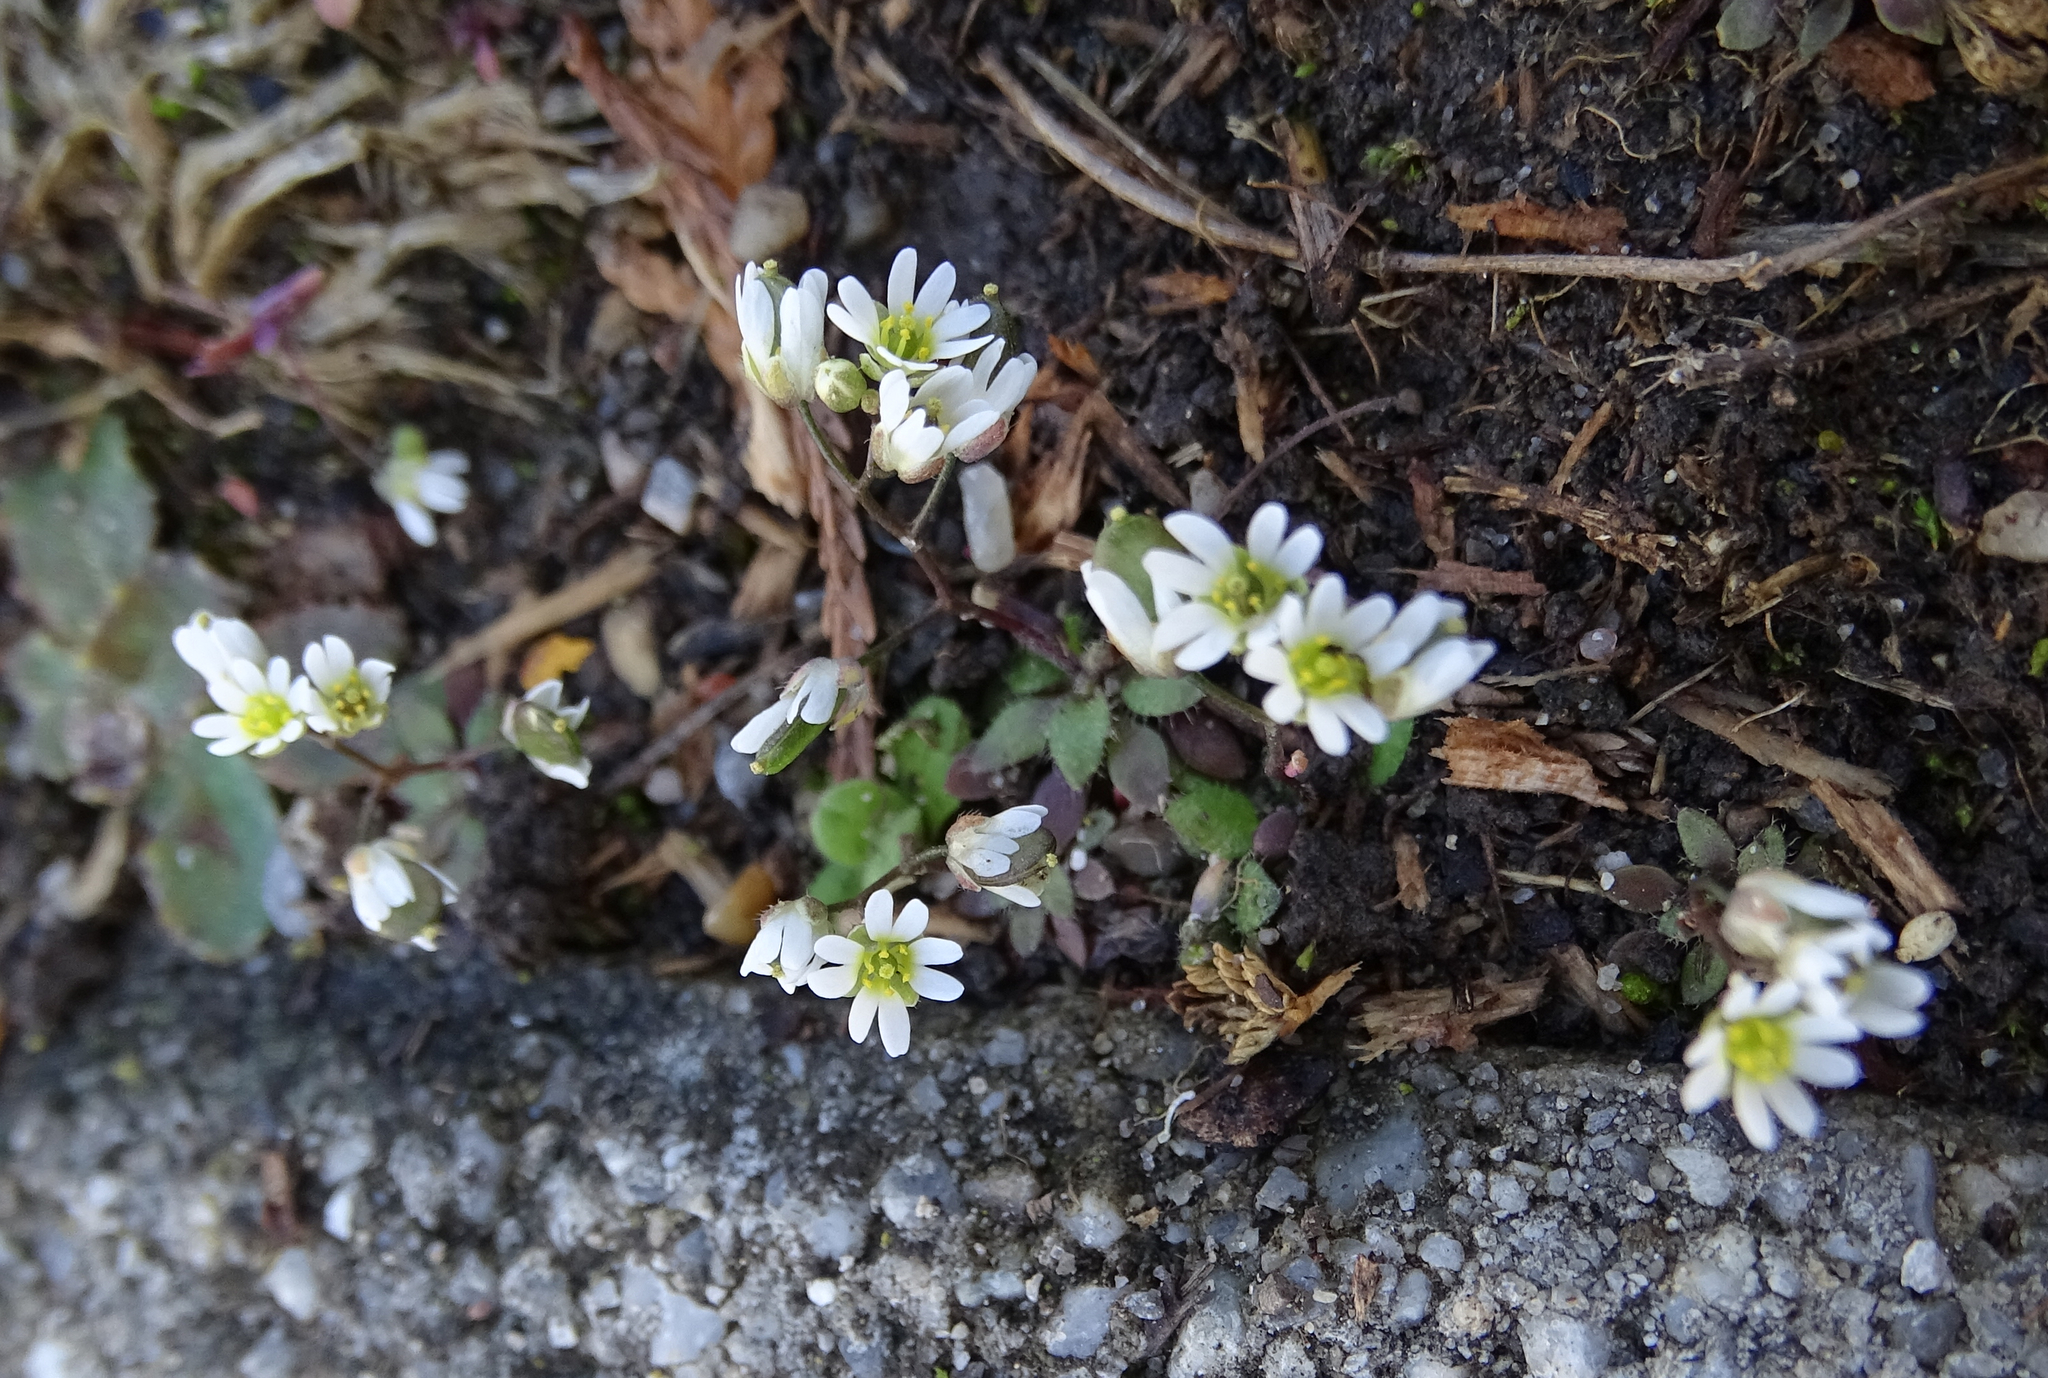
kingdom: Plantae
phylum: Tracheophyta
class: Magnoliopsida
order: Brassicales
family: Brassicaceae
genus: Draba
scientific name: Draba verna
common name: Spring draba
